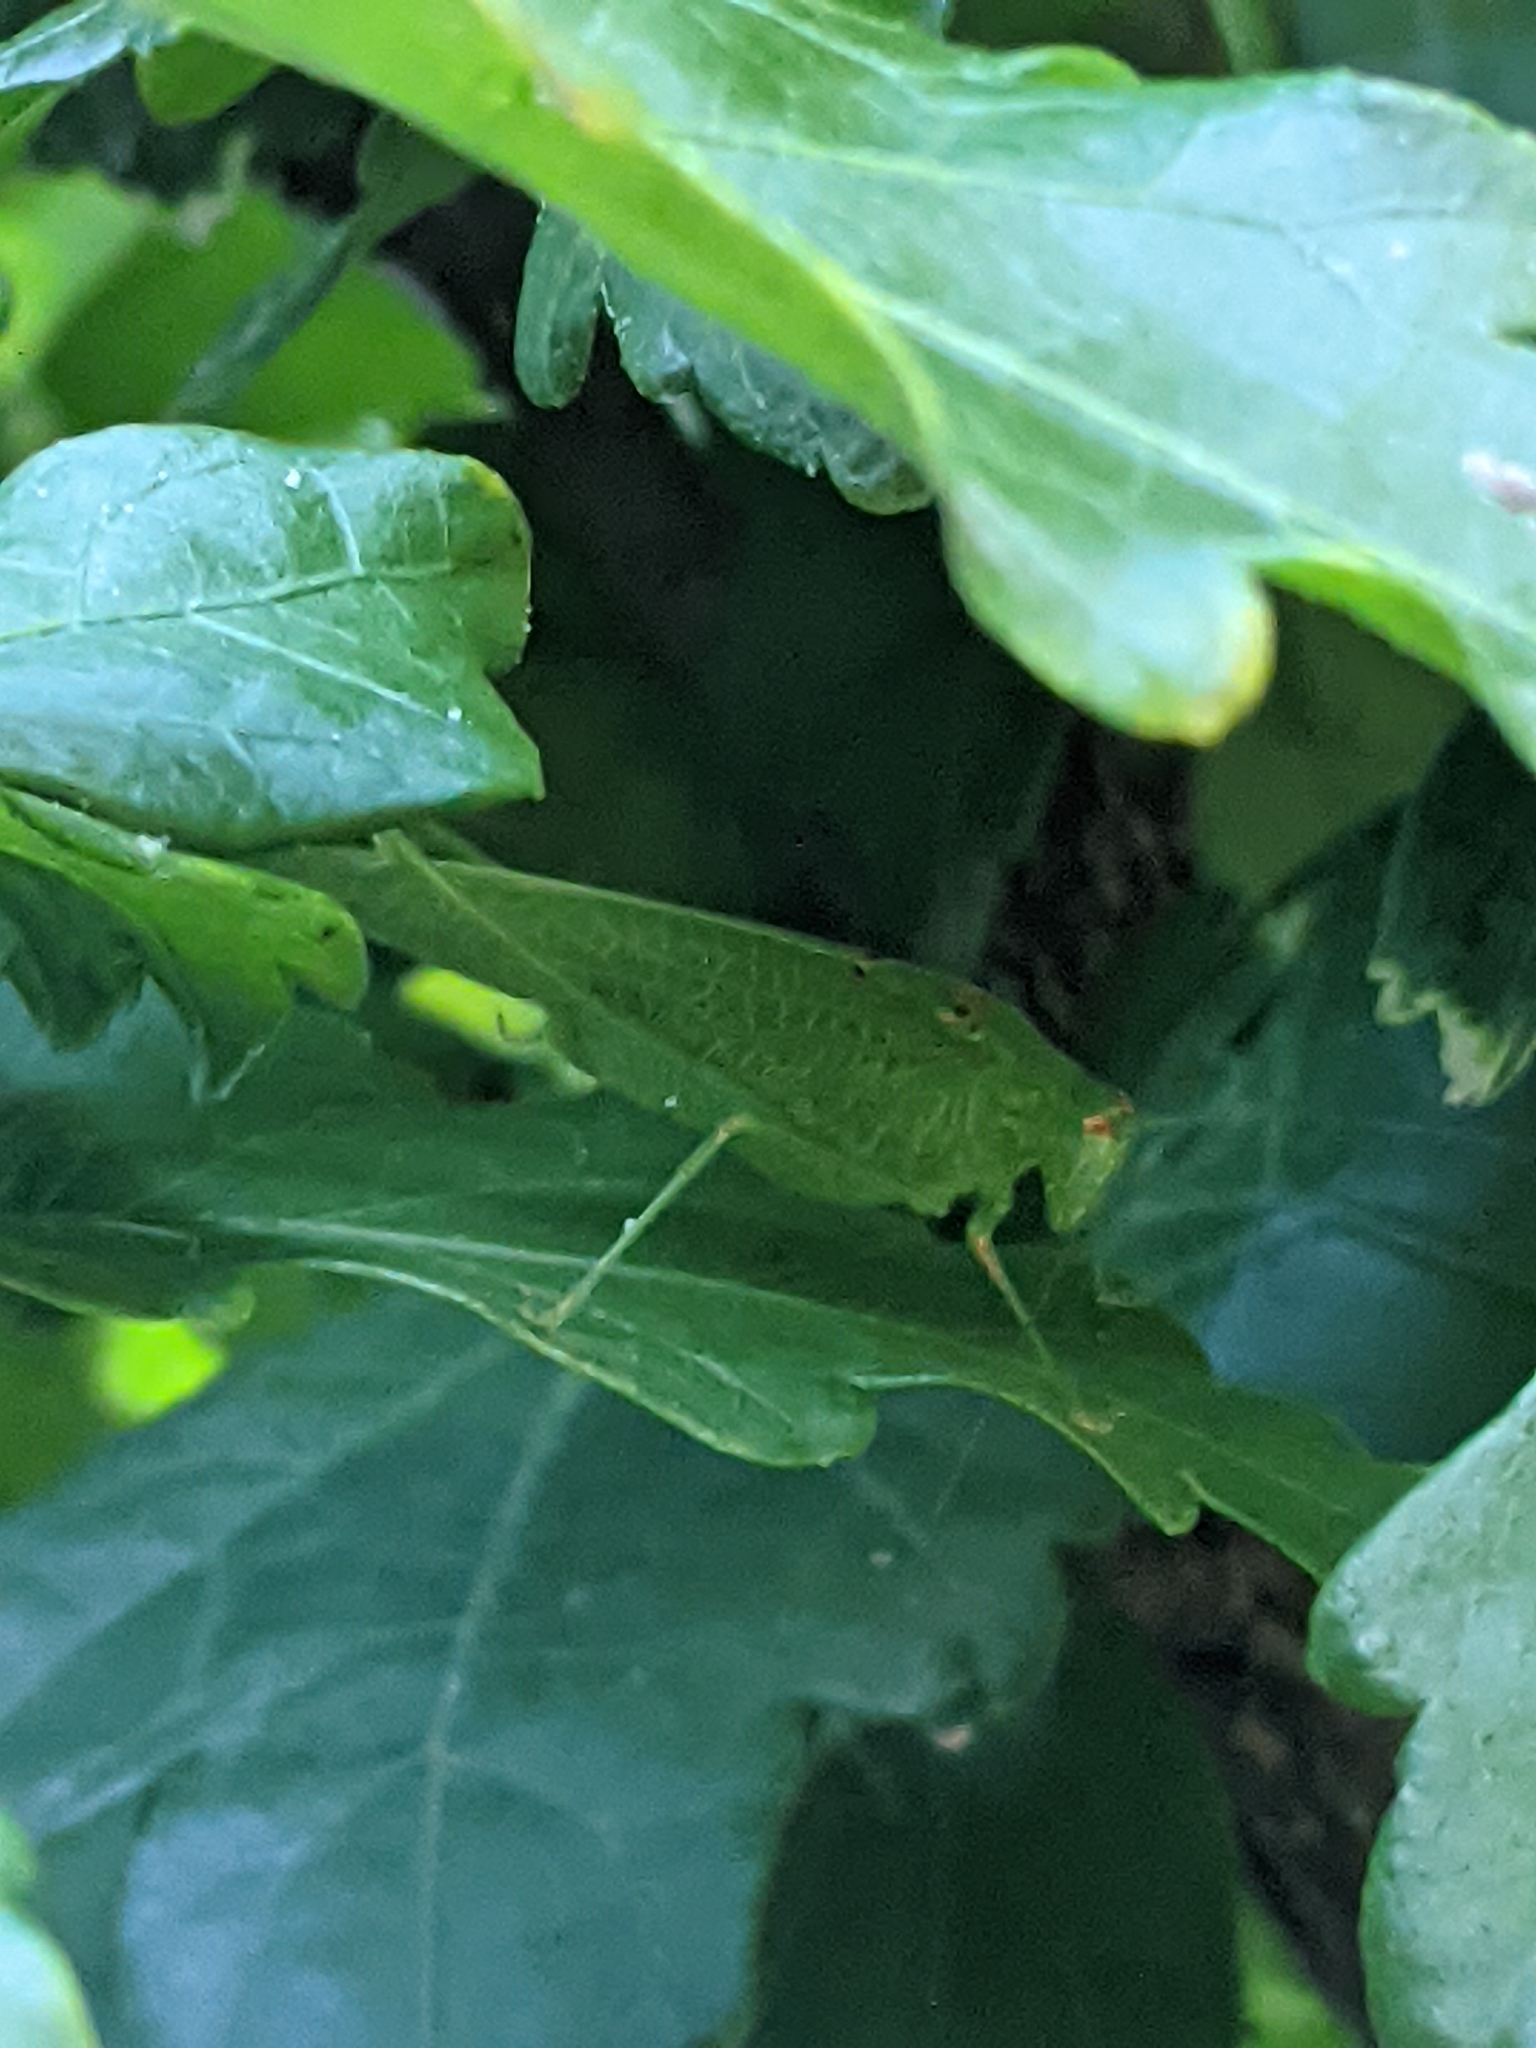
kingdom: Animalia
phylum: Arthropoda
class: Insecta
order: Orthoptera
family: Tettigoniidae
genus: Phaneroptera
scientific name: Phaneroptera nana
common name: Southern sickle bush-cricket
